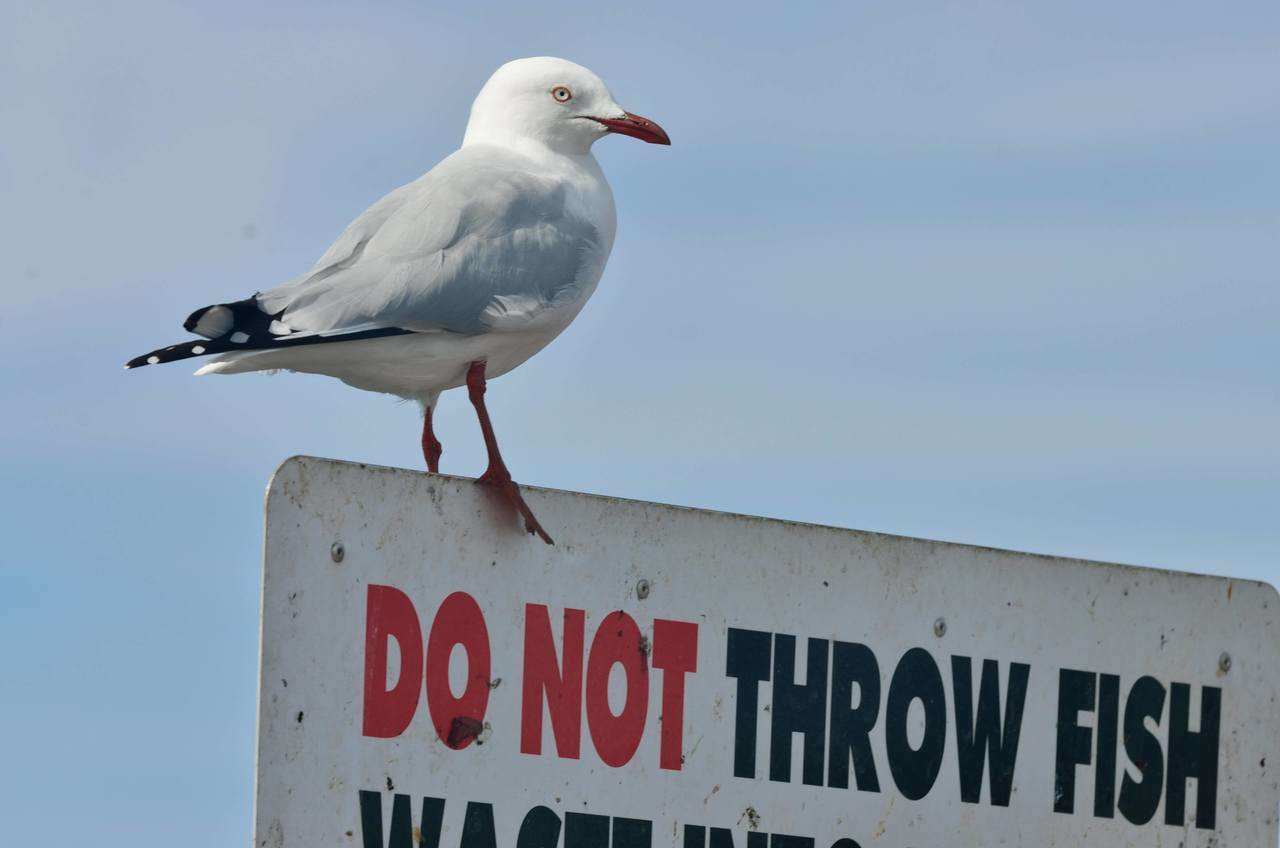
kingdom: Animalia
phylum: Chordata
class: Aves
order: Charadriiformes
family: Laridae
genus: Chroicocephalus
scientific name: Chroicocephalus novaehollandiae
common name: Silver gull
